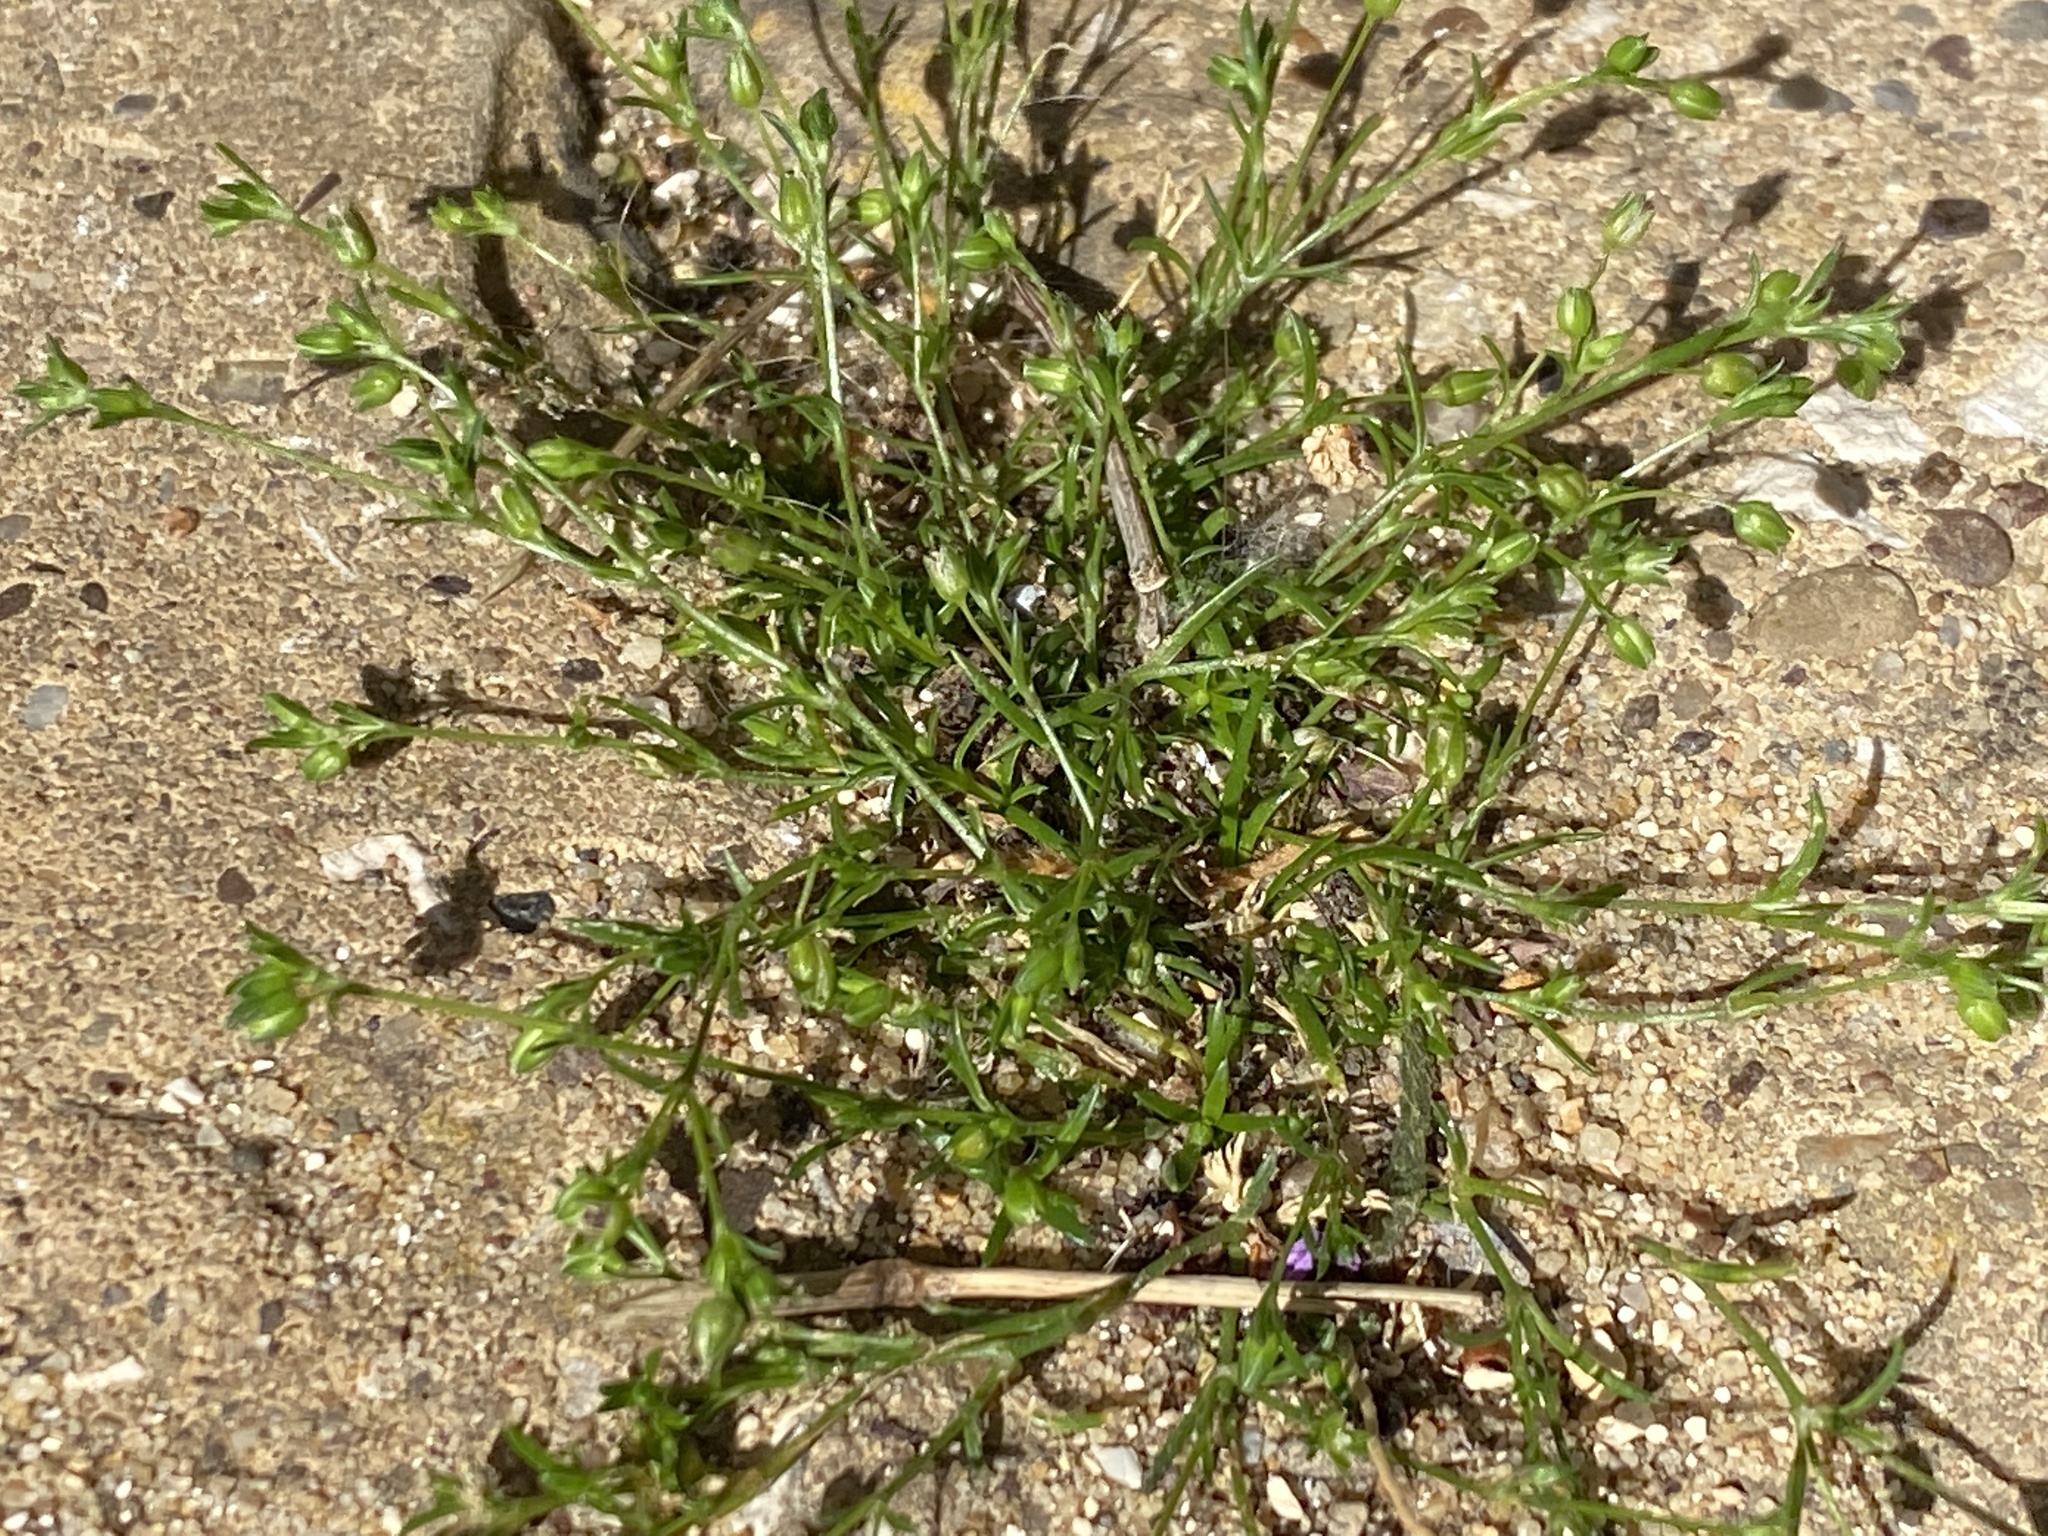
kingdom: Plantae
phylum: Tracheophyta
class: Magnoliopsida
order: Caryophyllales
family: Caryophyllaceae
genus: Sagina
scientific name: Sagina procumbens
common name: Procumbent pearlwort
